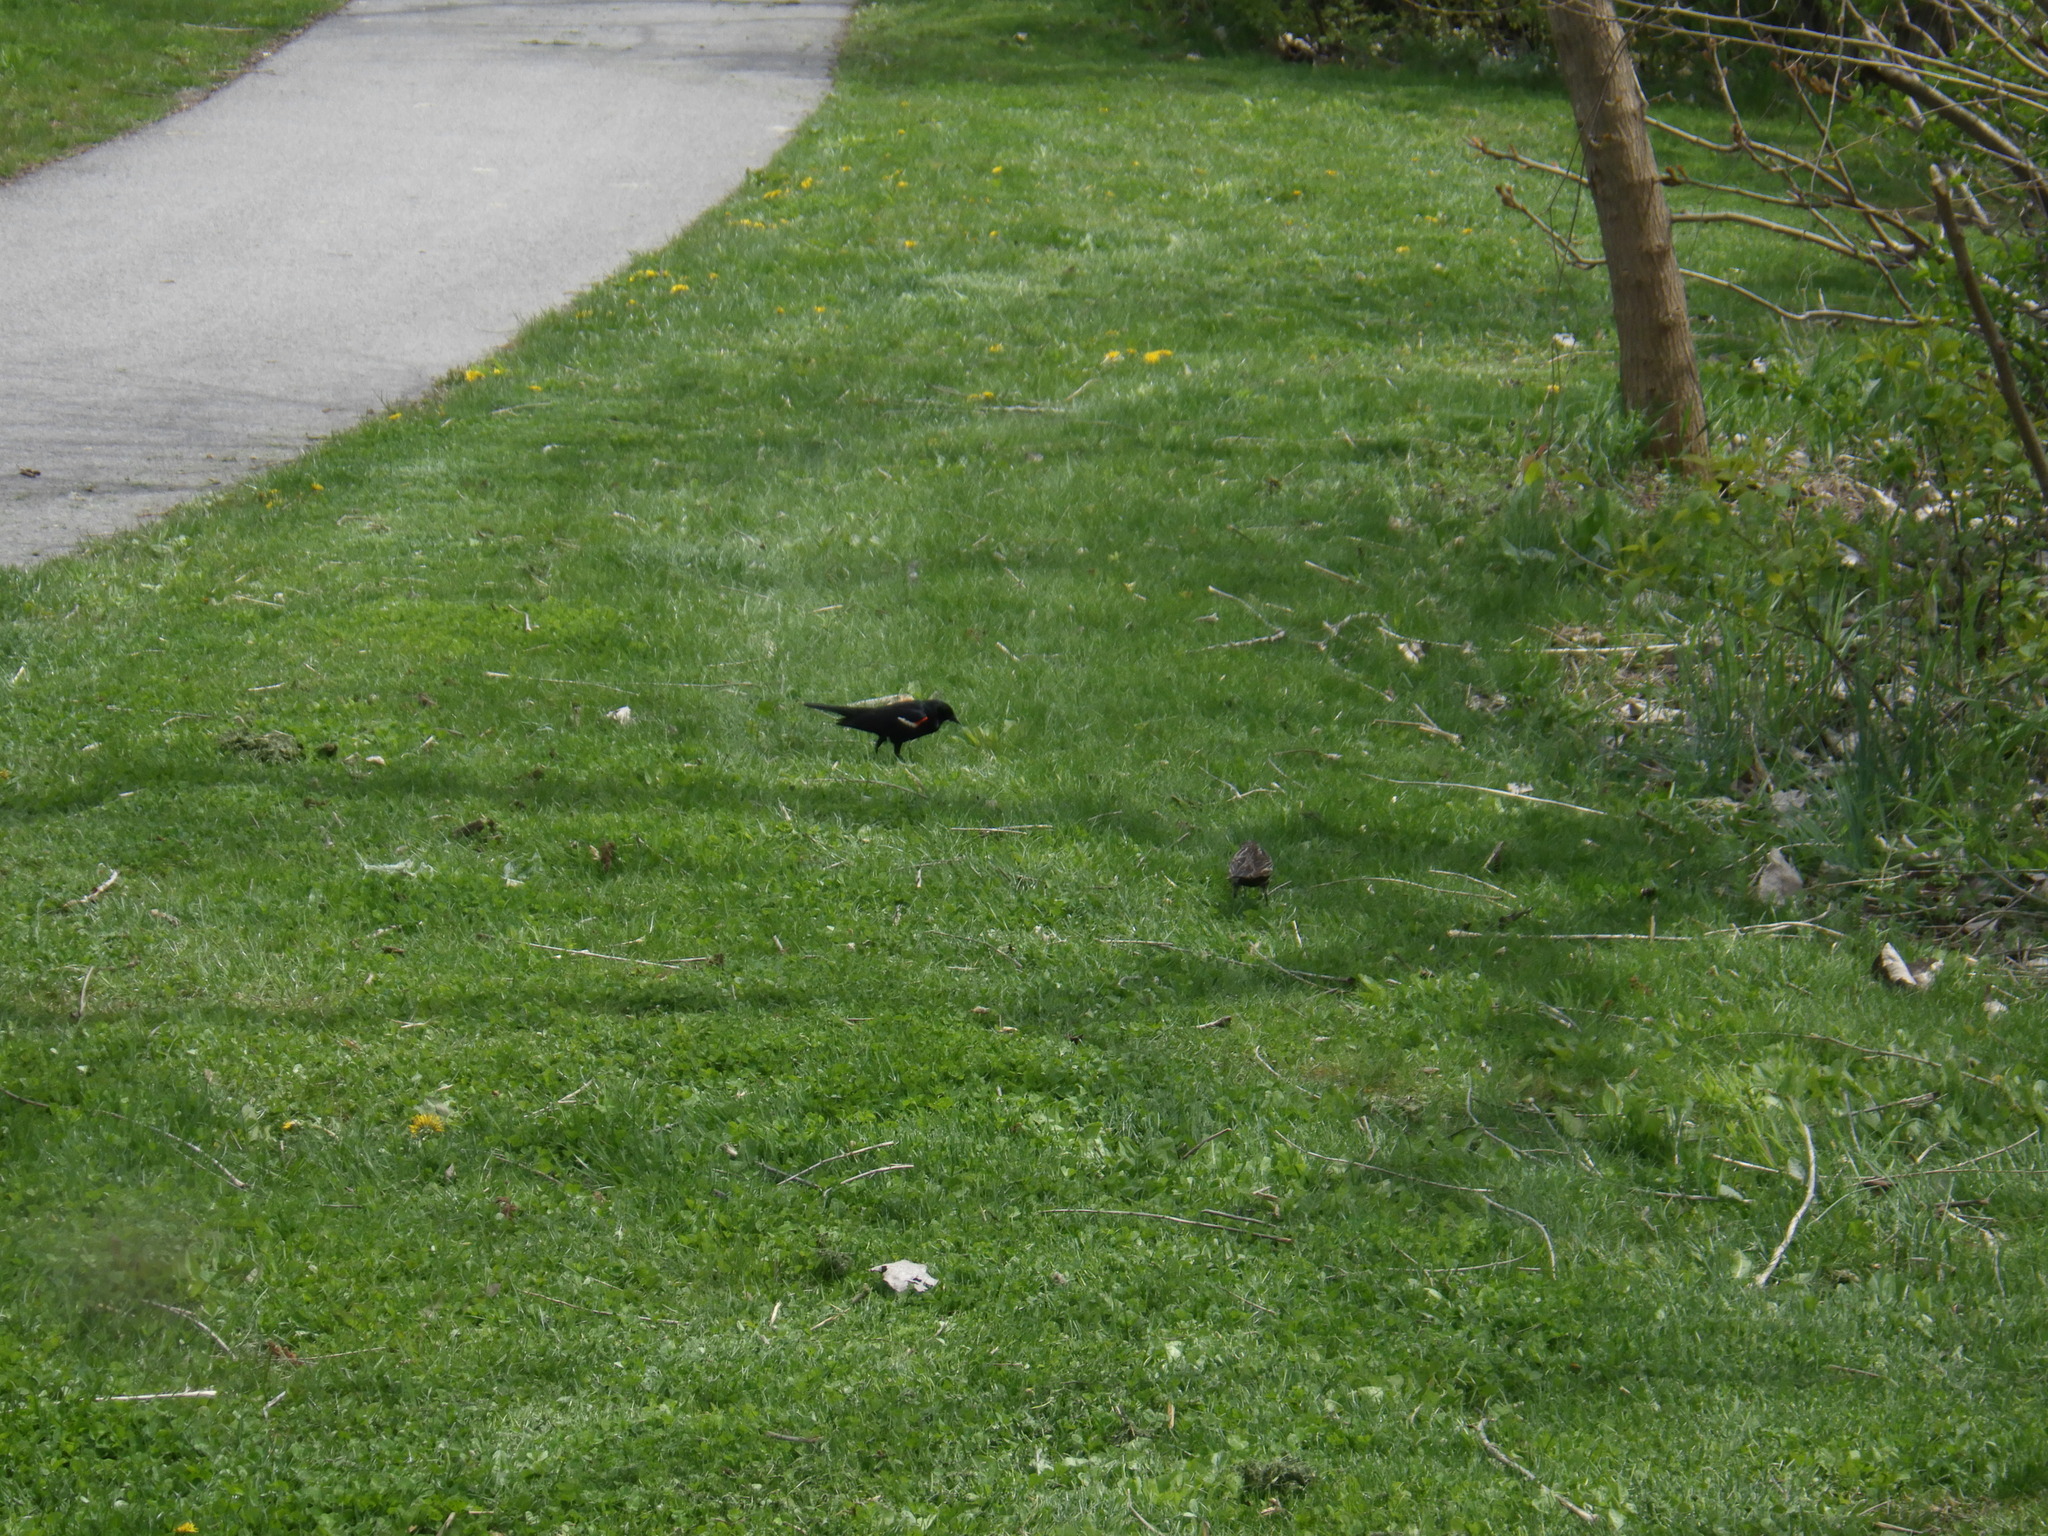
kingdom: Animalia
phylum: Chordata
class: Aves
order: Passeriformes
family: Icteridae
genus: Agelaius
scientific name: Agelaius phoeniceus
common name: Red-winged blackbird
